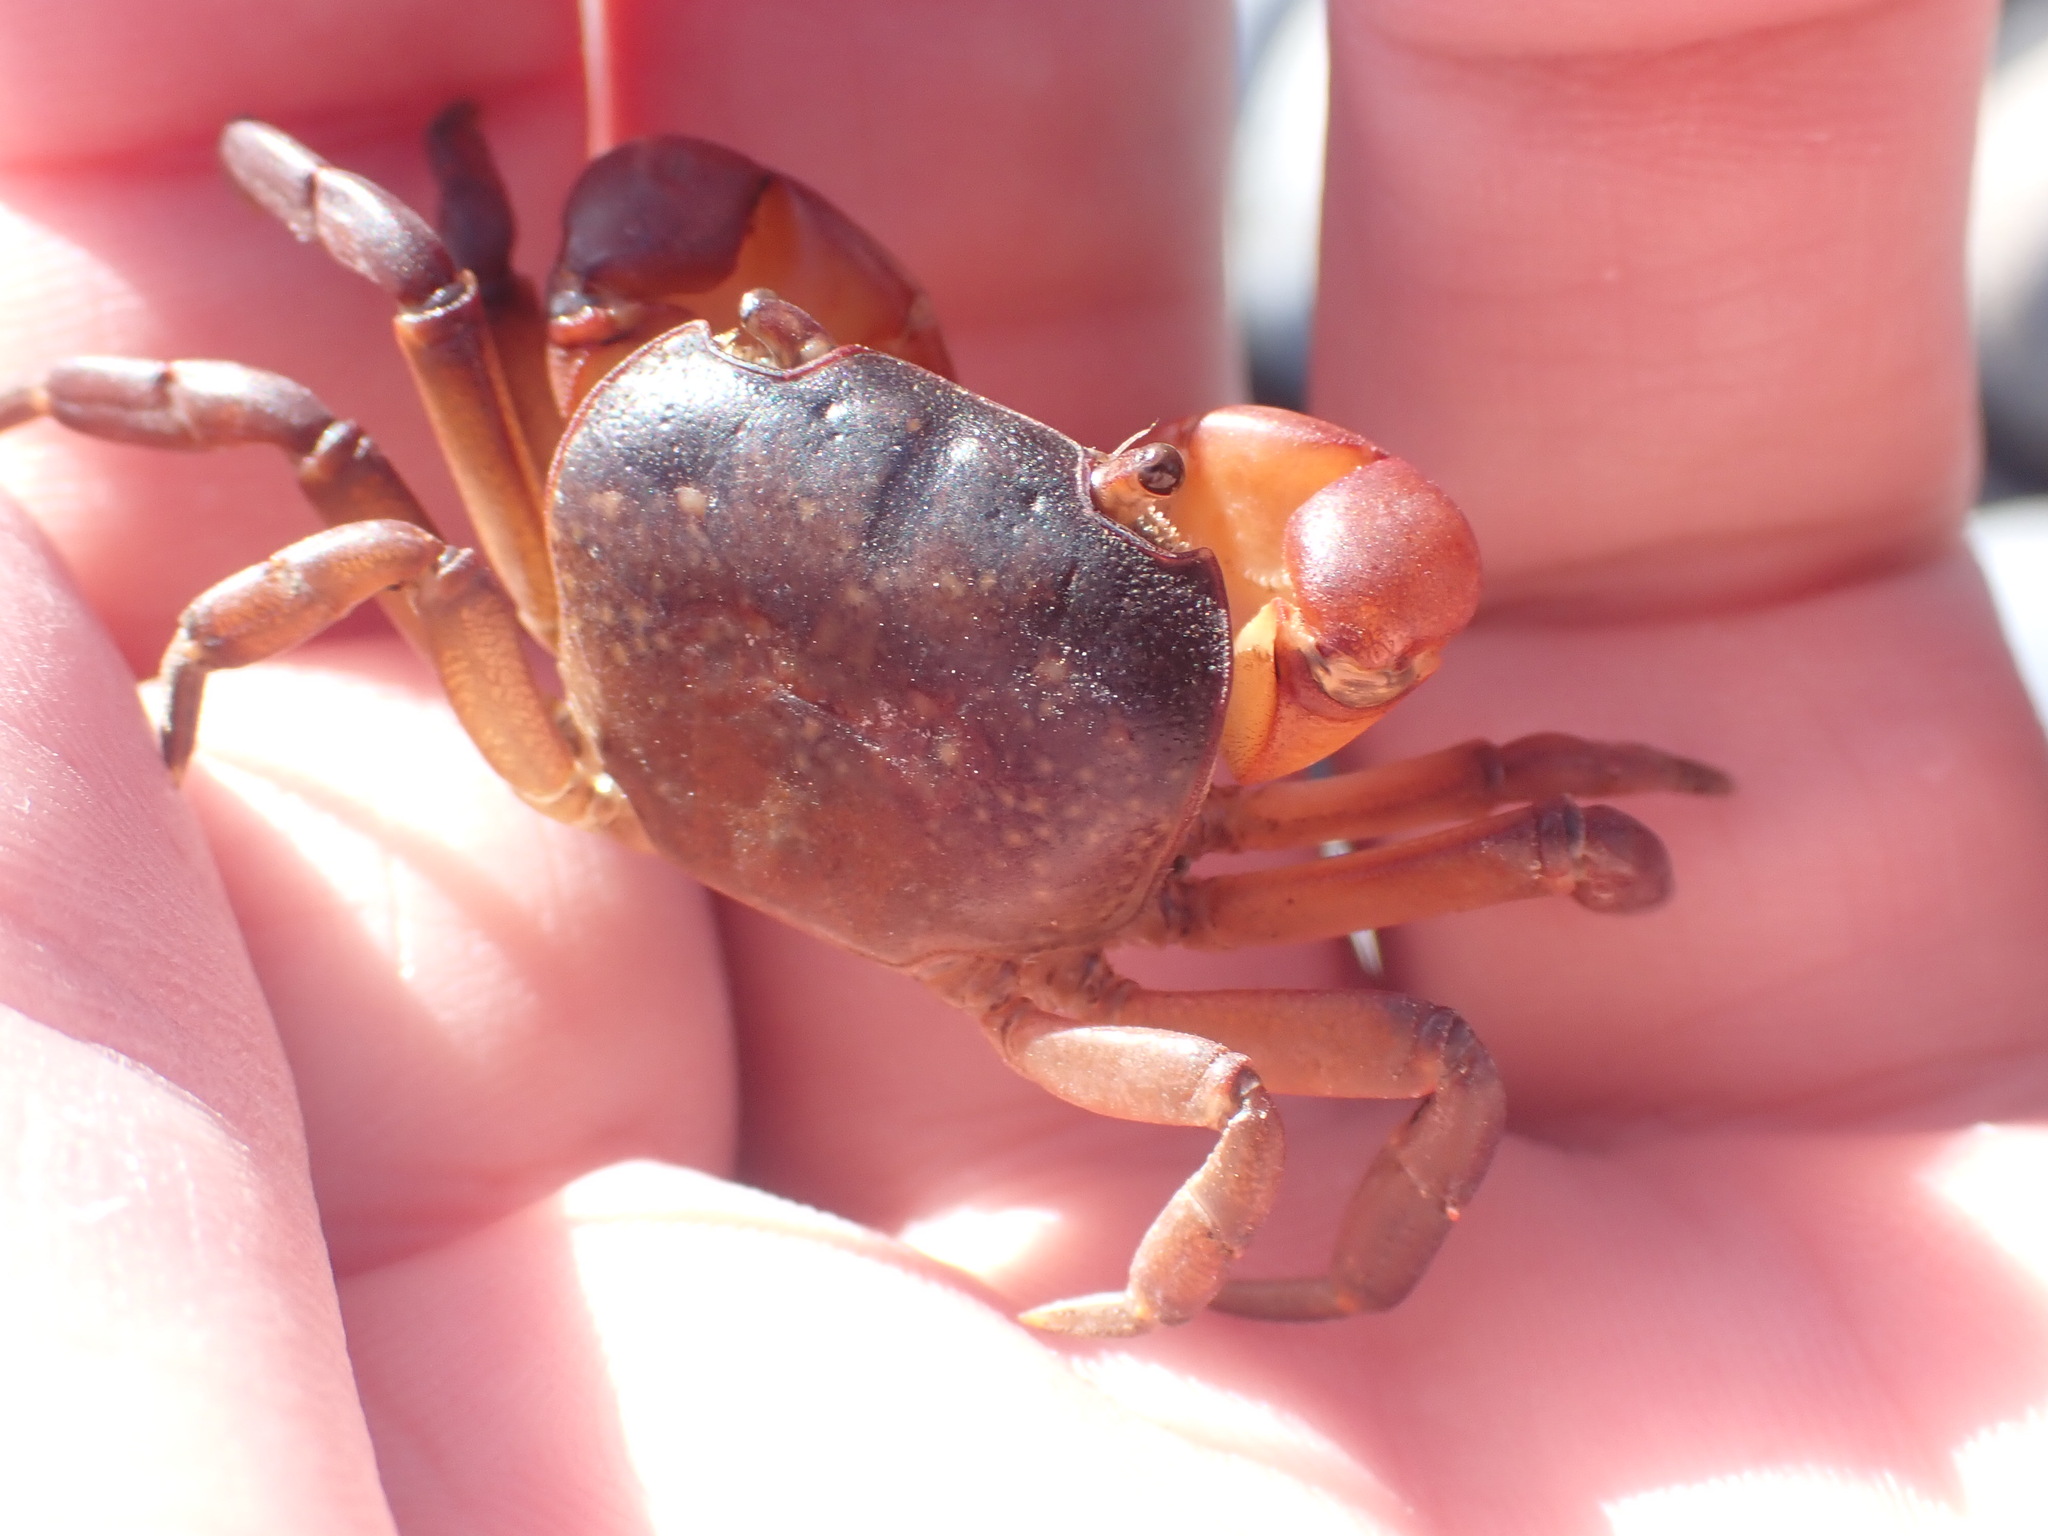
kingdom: Animalia
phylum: Arthropoda
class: Malacostraca
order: Decapoda
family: Varunidae
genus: Cyclograpsus
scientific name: Cyclograpsus lavauxi
